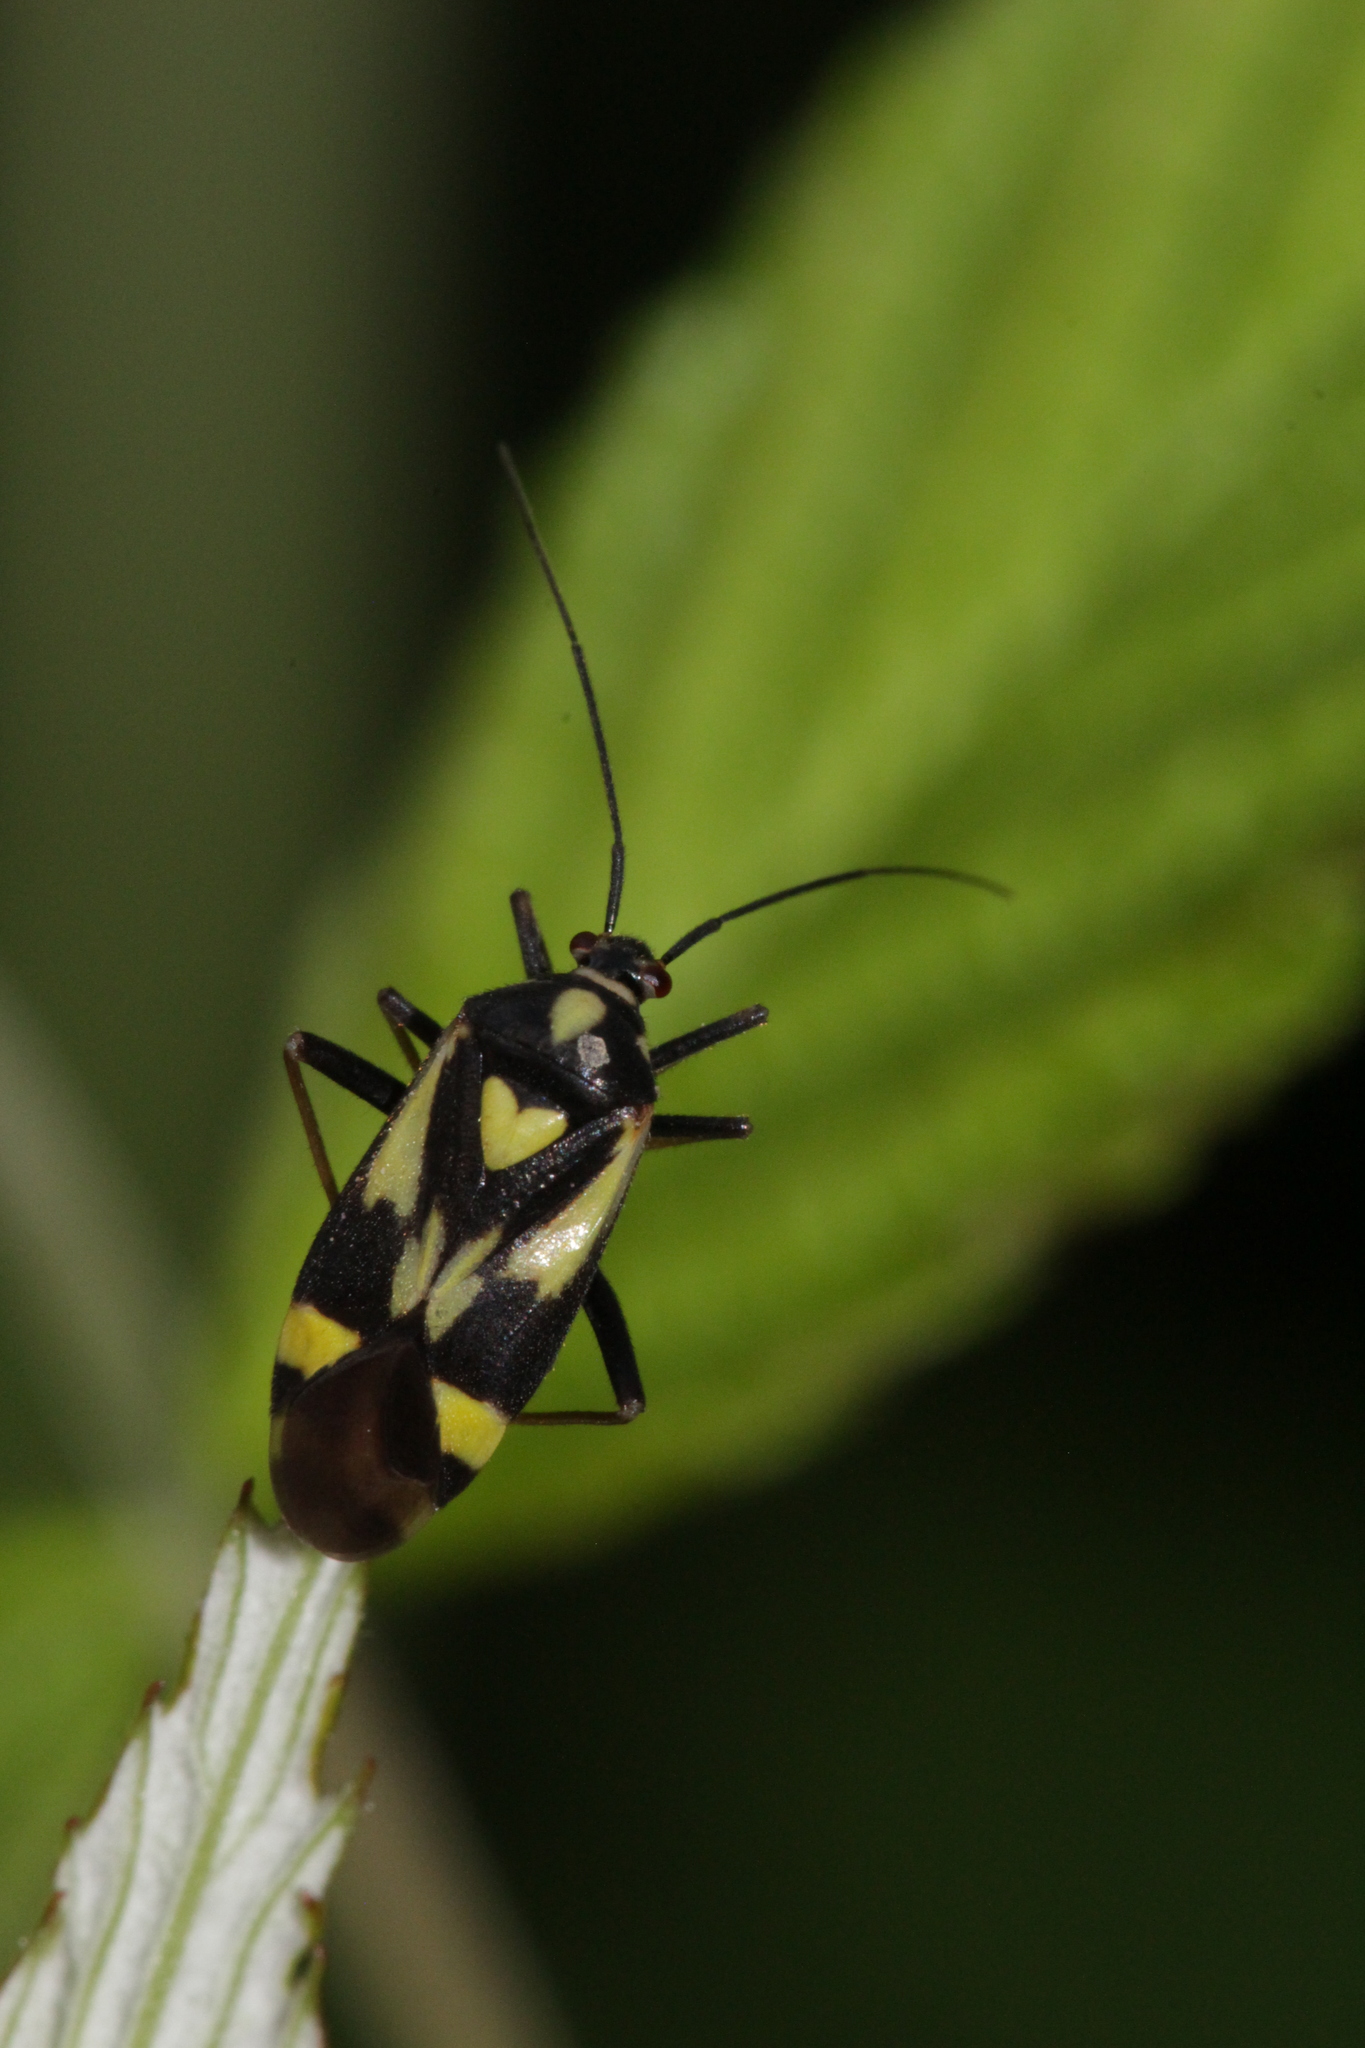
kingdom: Animalia
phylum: Arthropoda
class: Insecta
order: Hemiptera
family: Miridae
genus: Grypocoris
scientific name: Grypocoris sexguttatus
